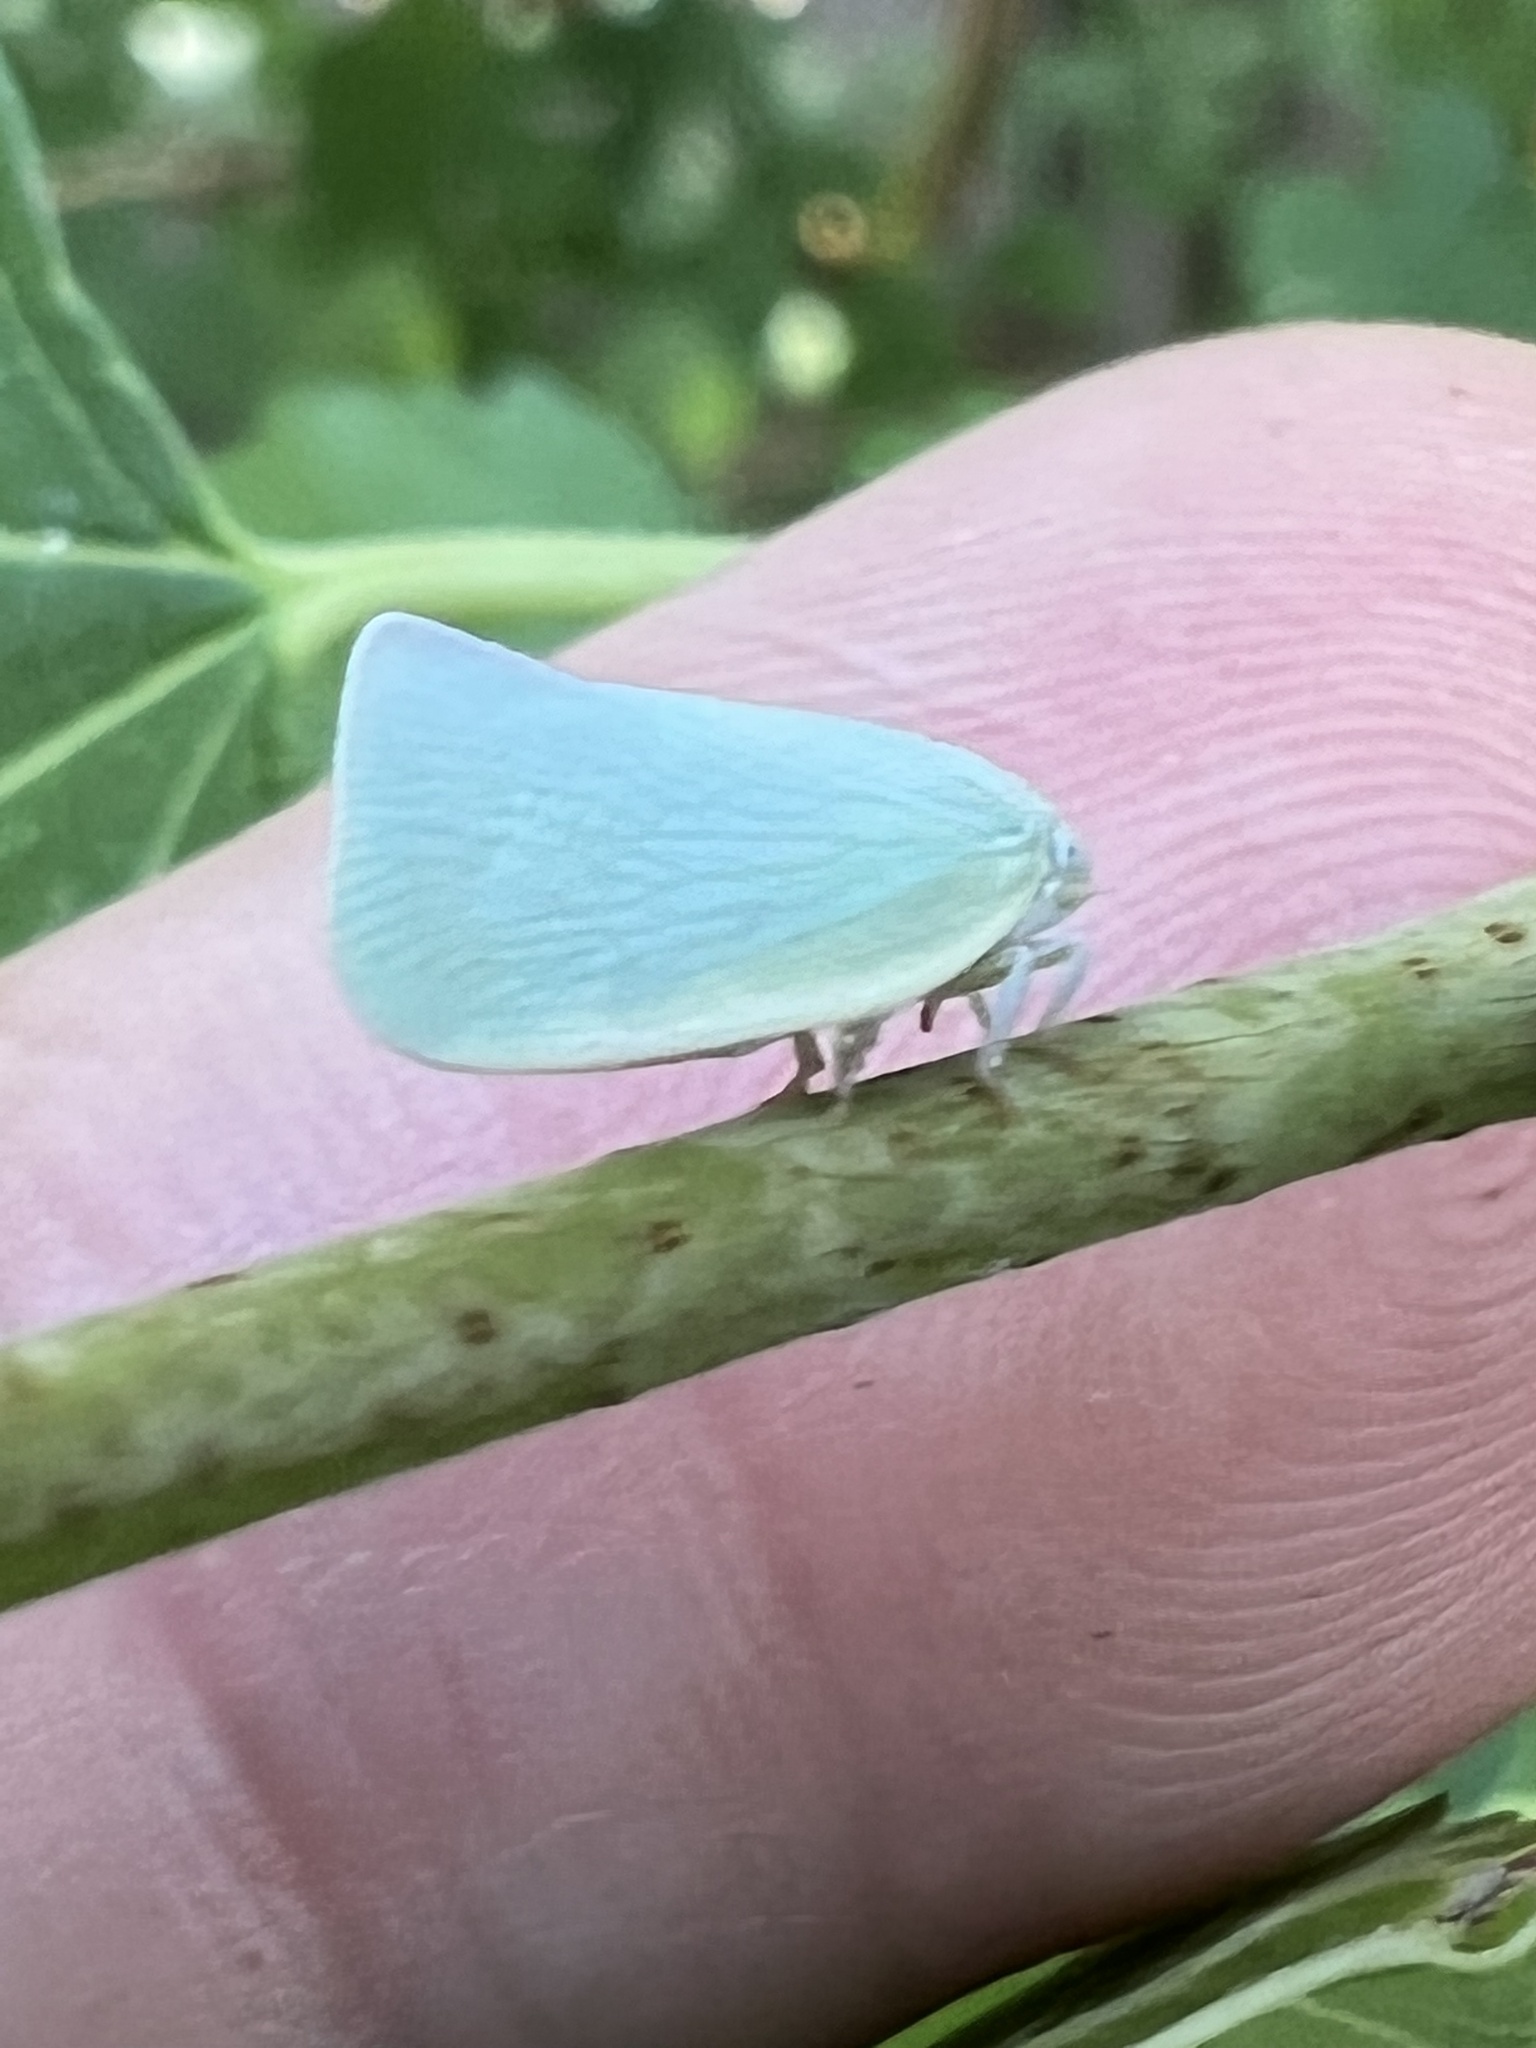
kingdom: Animalia
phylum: Arthropoda
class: Insecta
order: Hemiptera
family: Flatidae
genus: Flatormenis
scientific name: Flatormenis proxima
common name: Northern flatid planthopper
